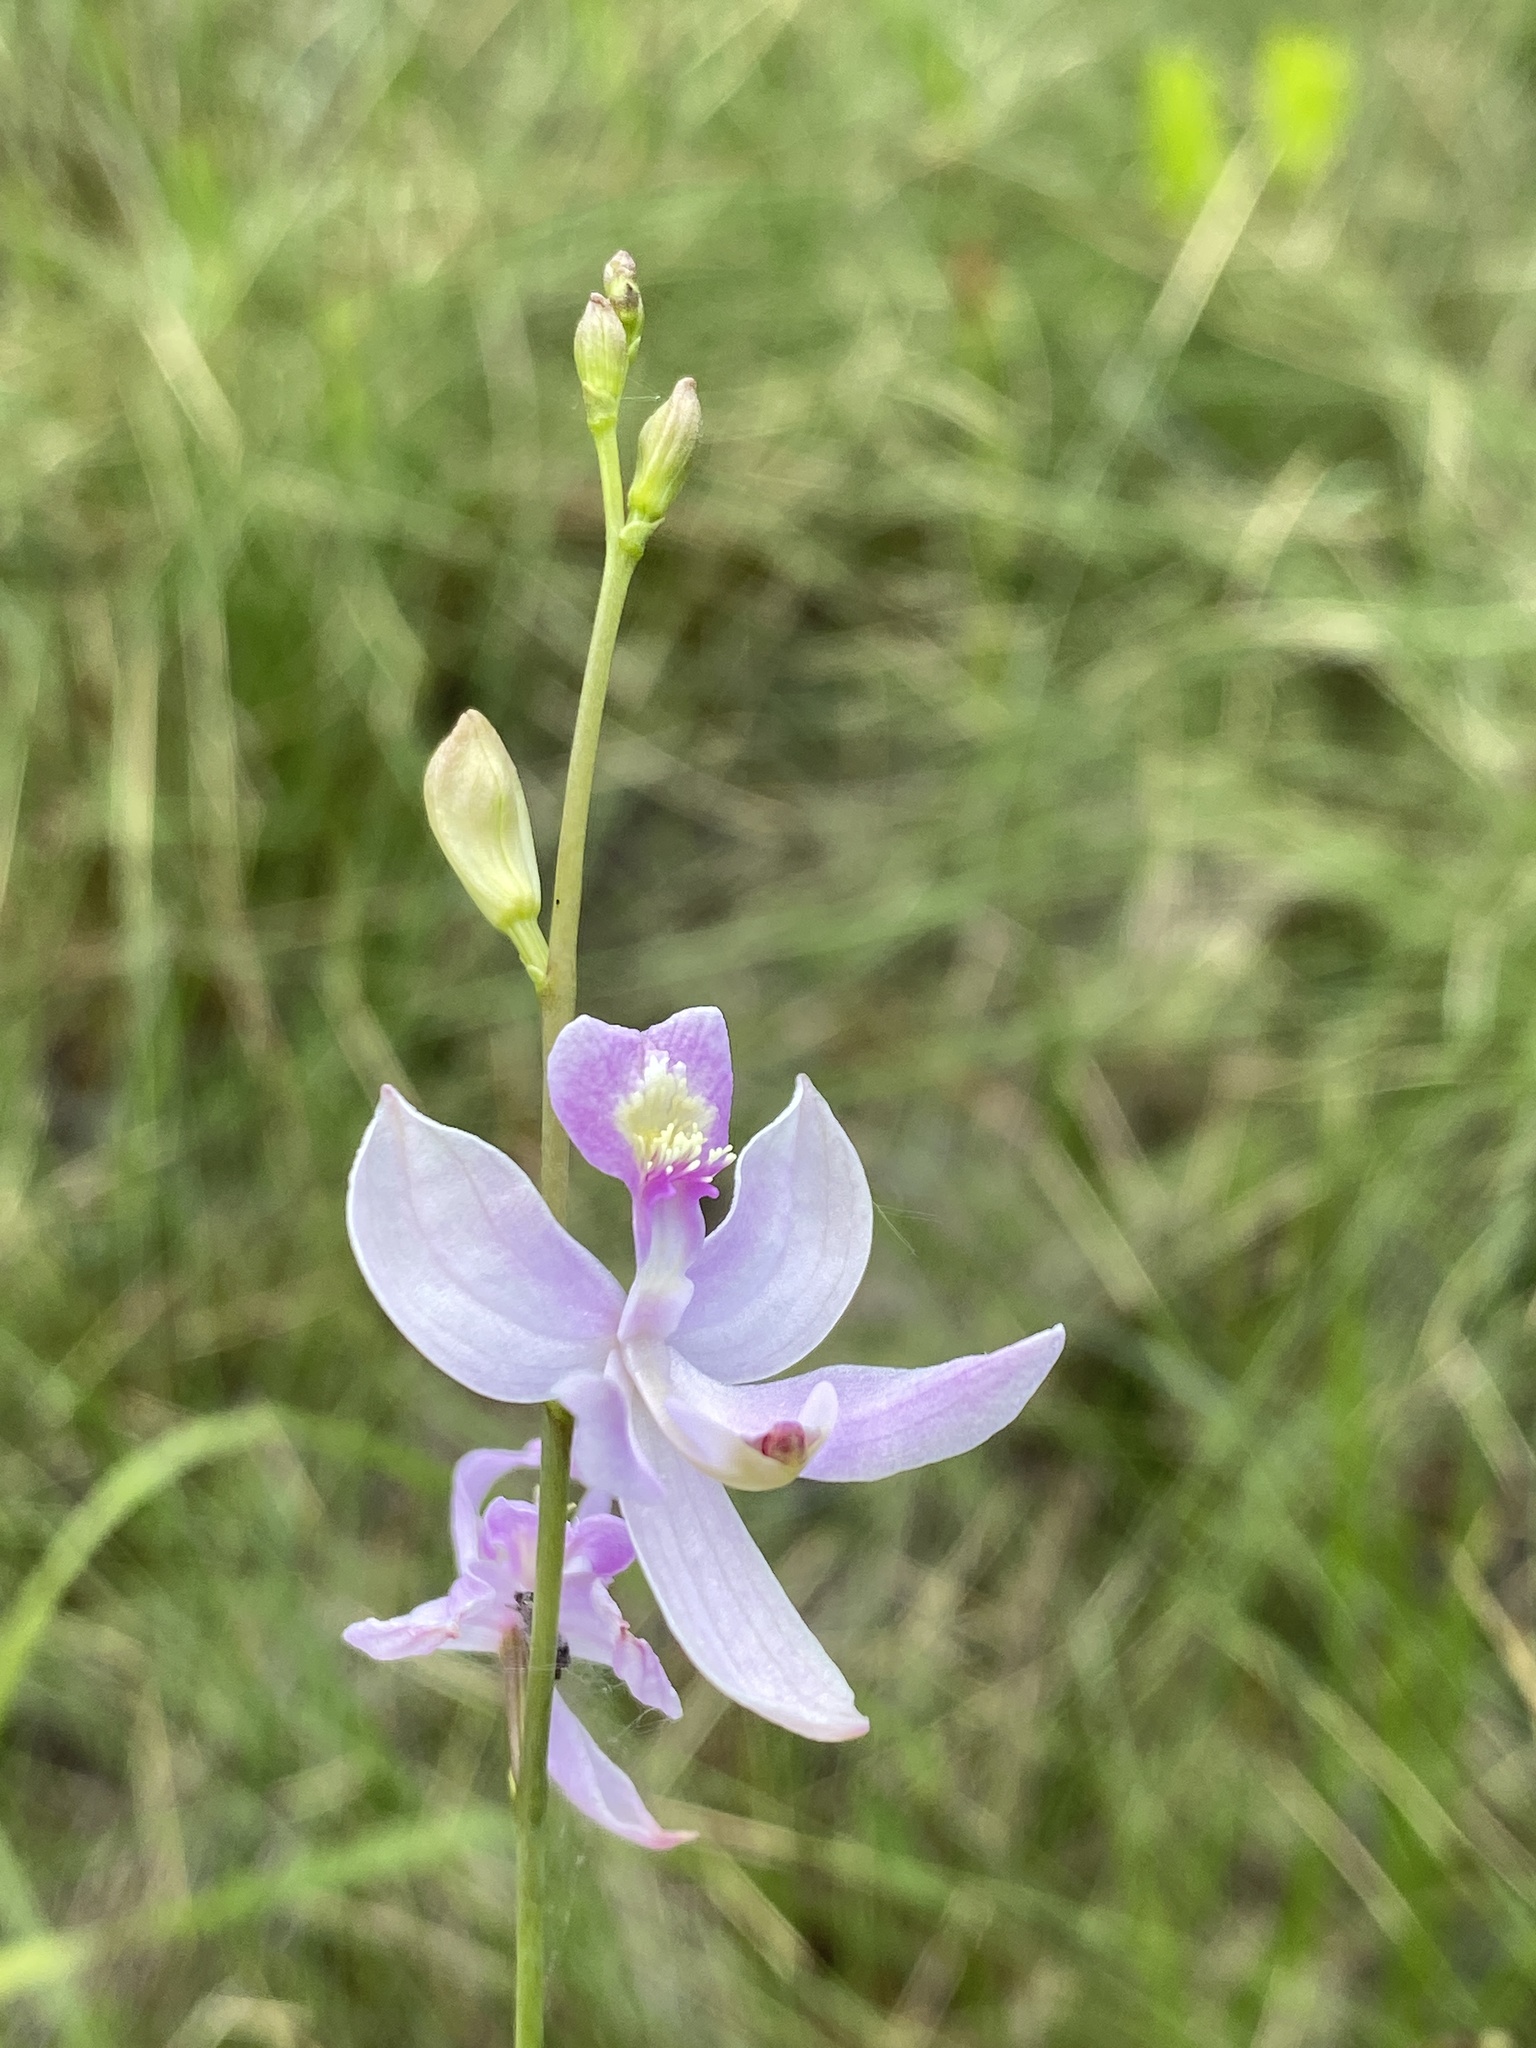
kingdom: Plantae
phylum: Tracheophyta
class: Liliopsida
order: Asparagales
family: Orchidaceae
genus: Calopogon
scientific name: Calopogon pallidus
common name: Pale grasspink
